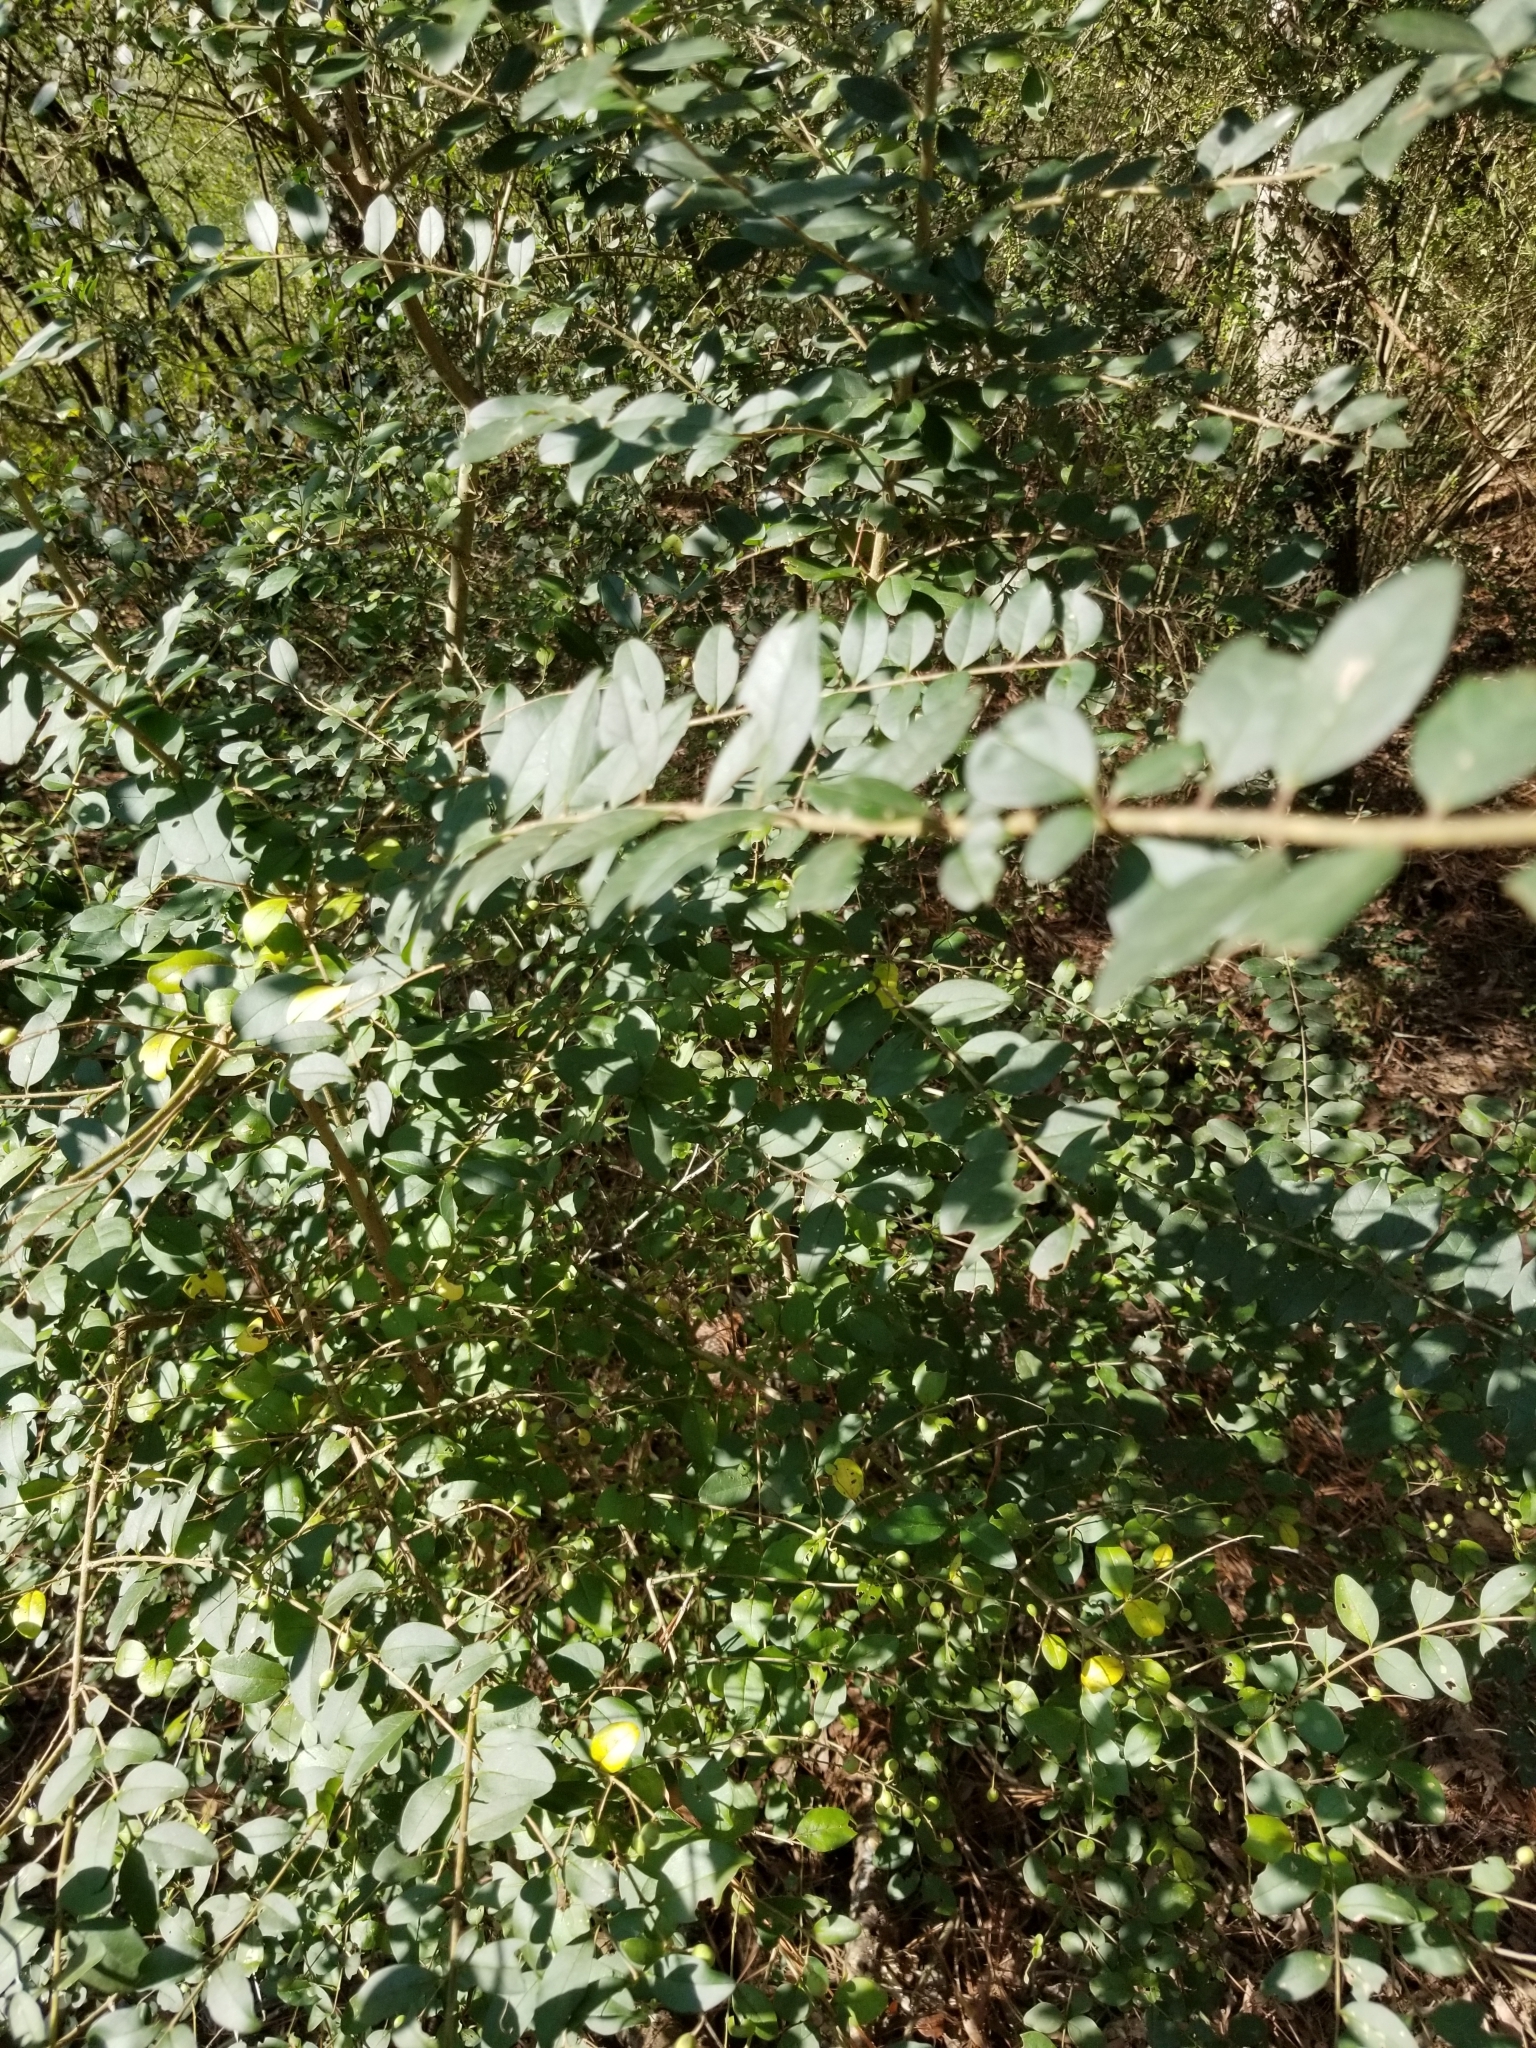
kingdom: Plantae
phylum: Tracheophyta
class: Magnoliopsida
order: Lamiales
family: Oleaceae
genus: Ligustrum
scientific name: Ligustrum sinense
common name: Chinese privet
